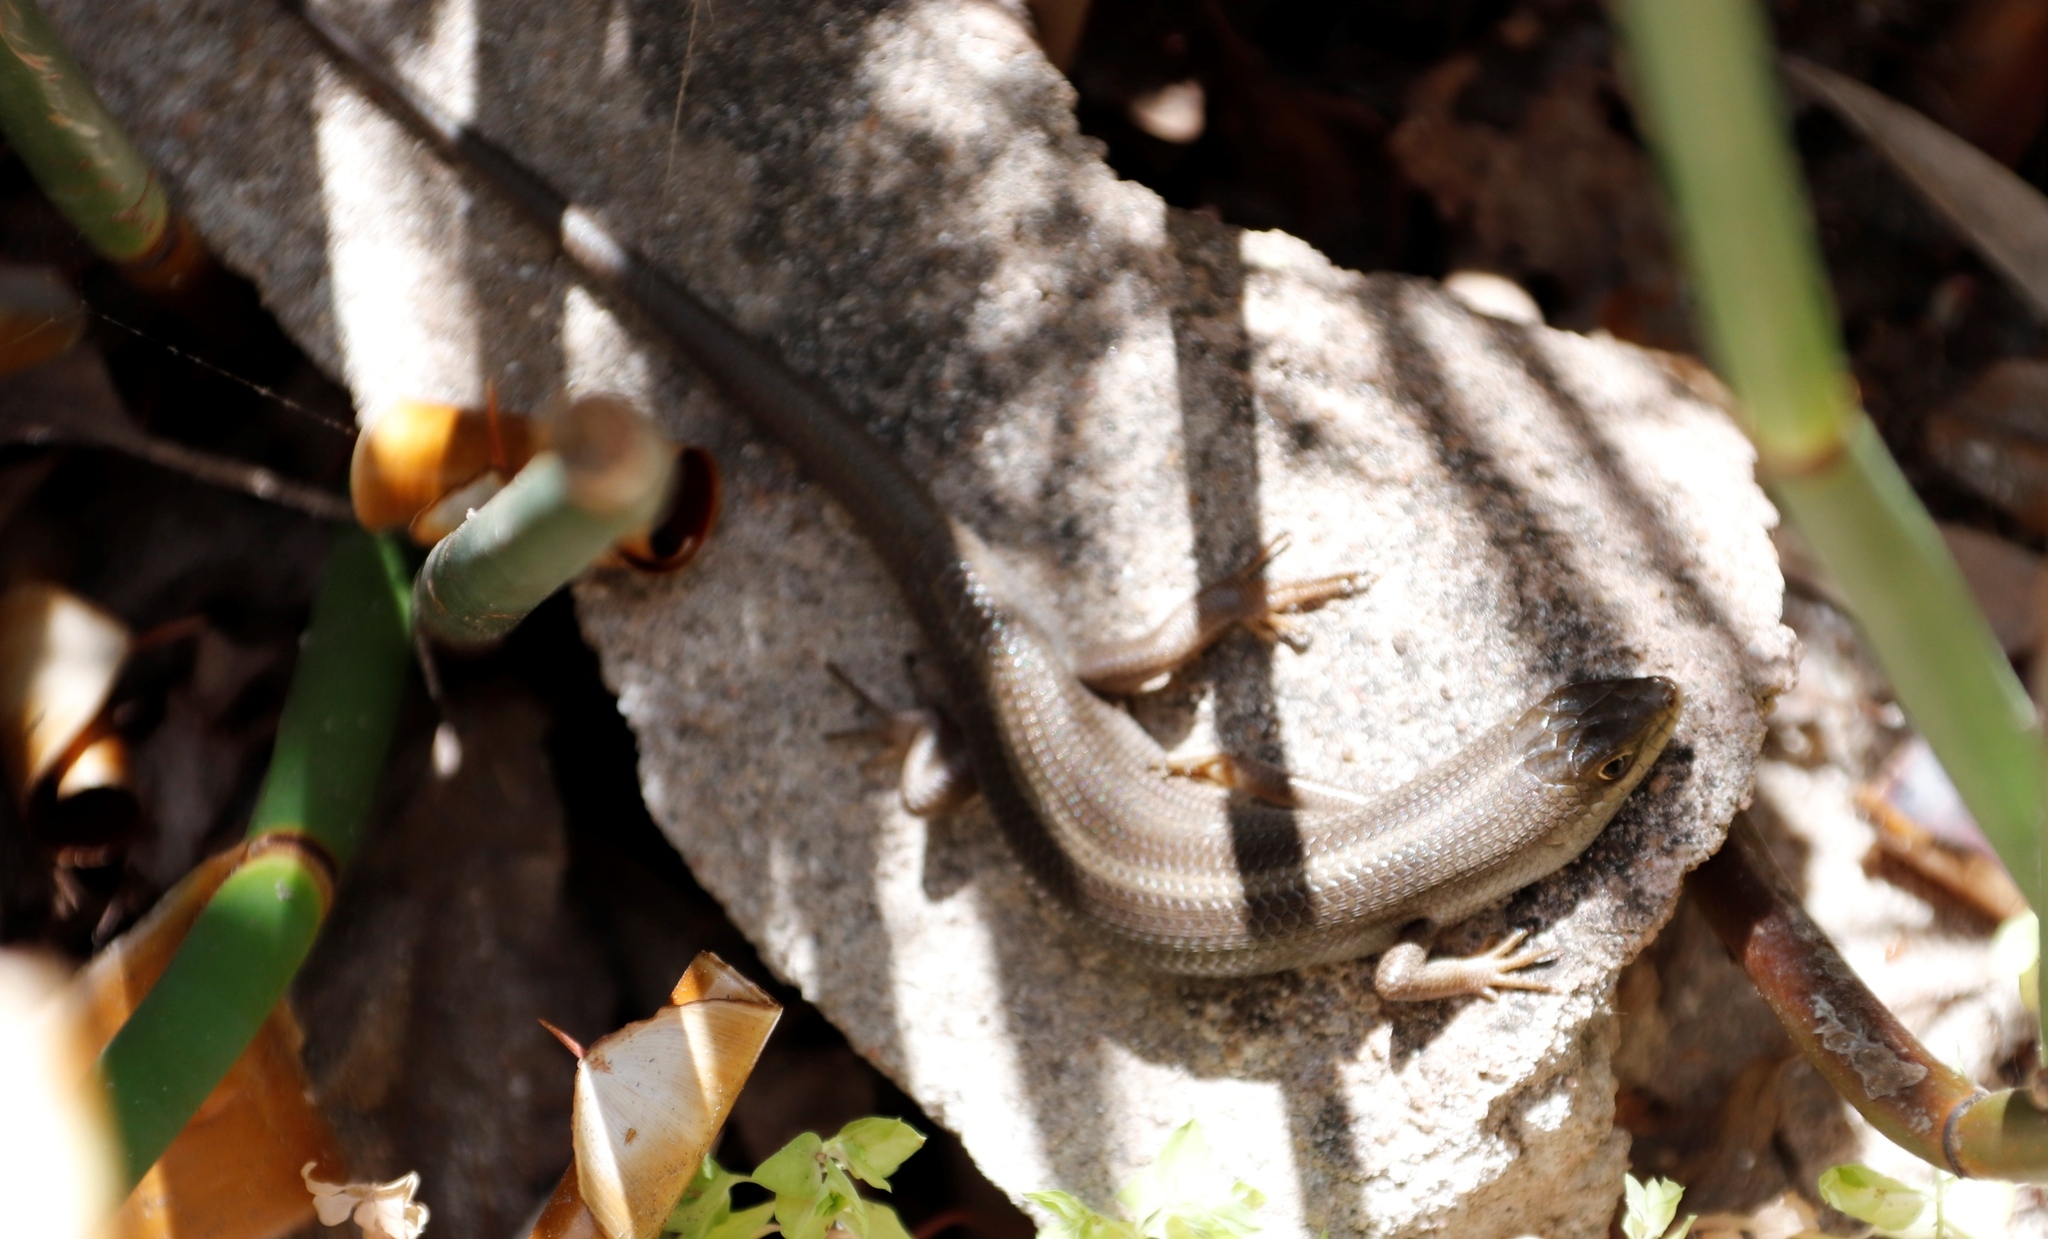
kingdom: Animalia
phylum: Chordata
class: Squamata
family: Scincidae
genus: Trachylepis
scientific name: Trachylepis capensis
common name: Cape skink
